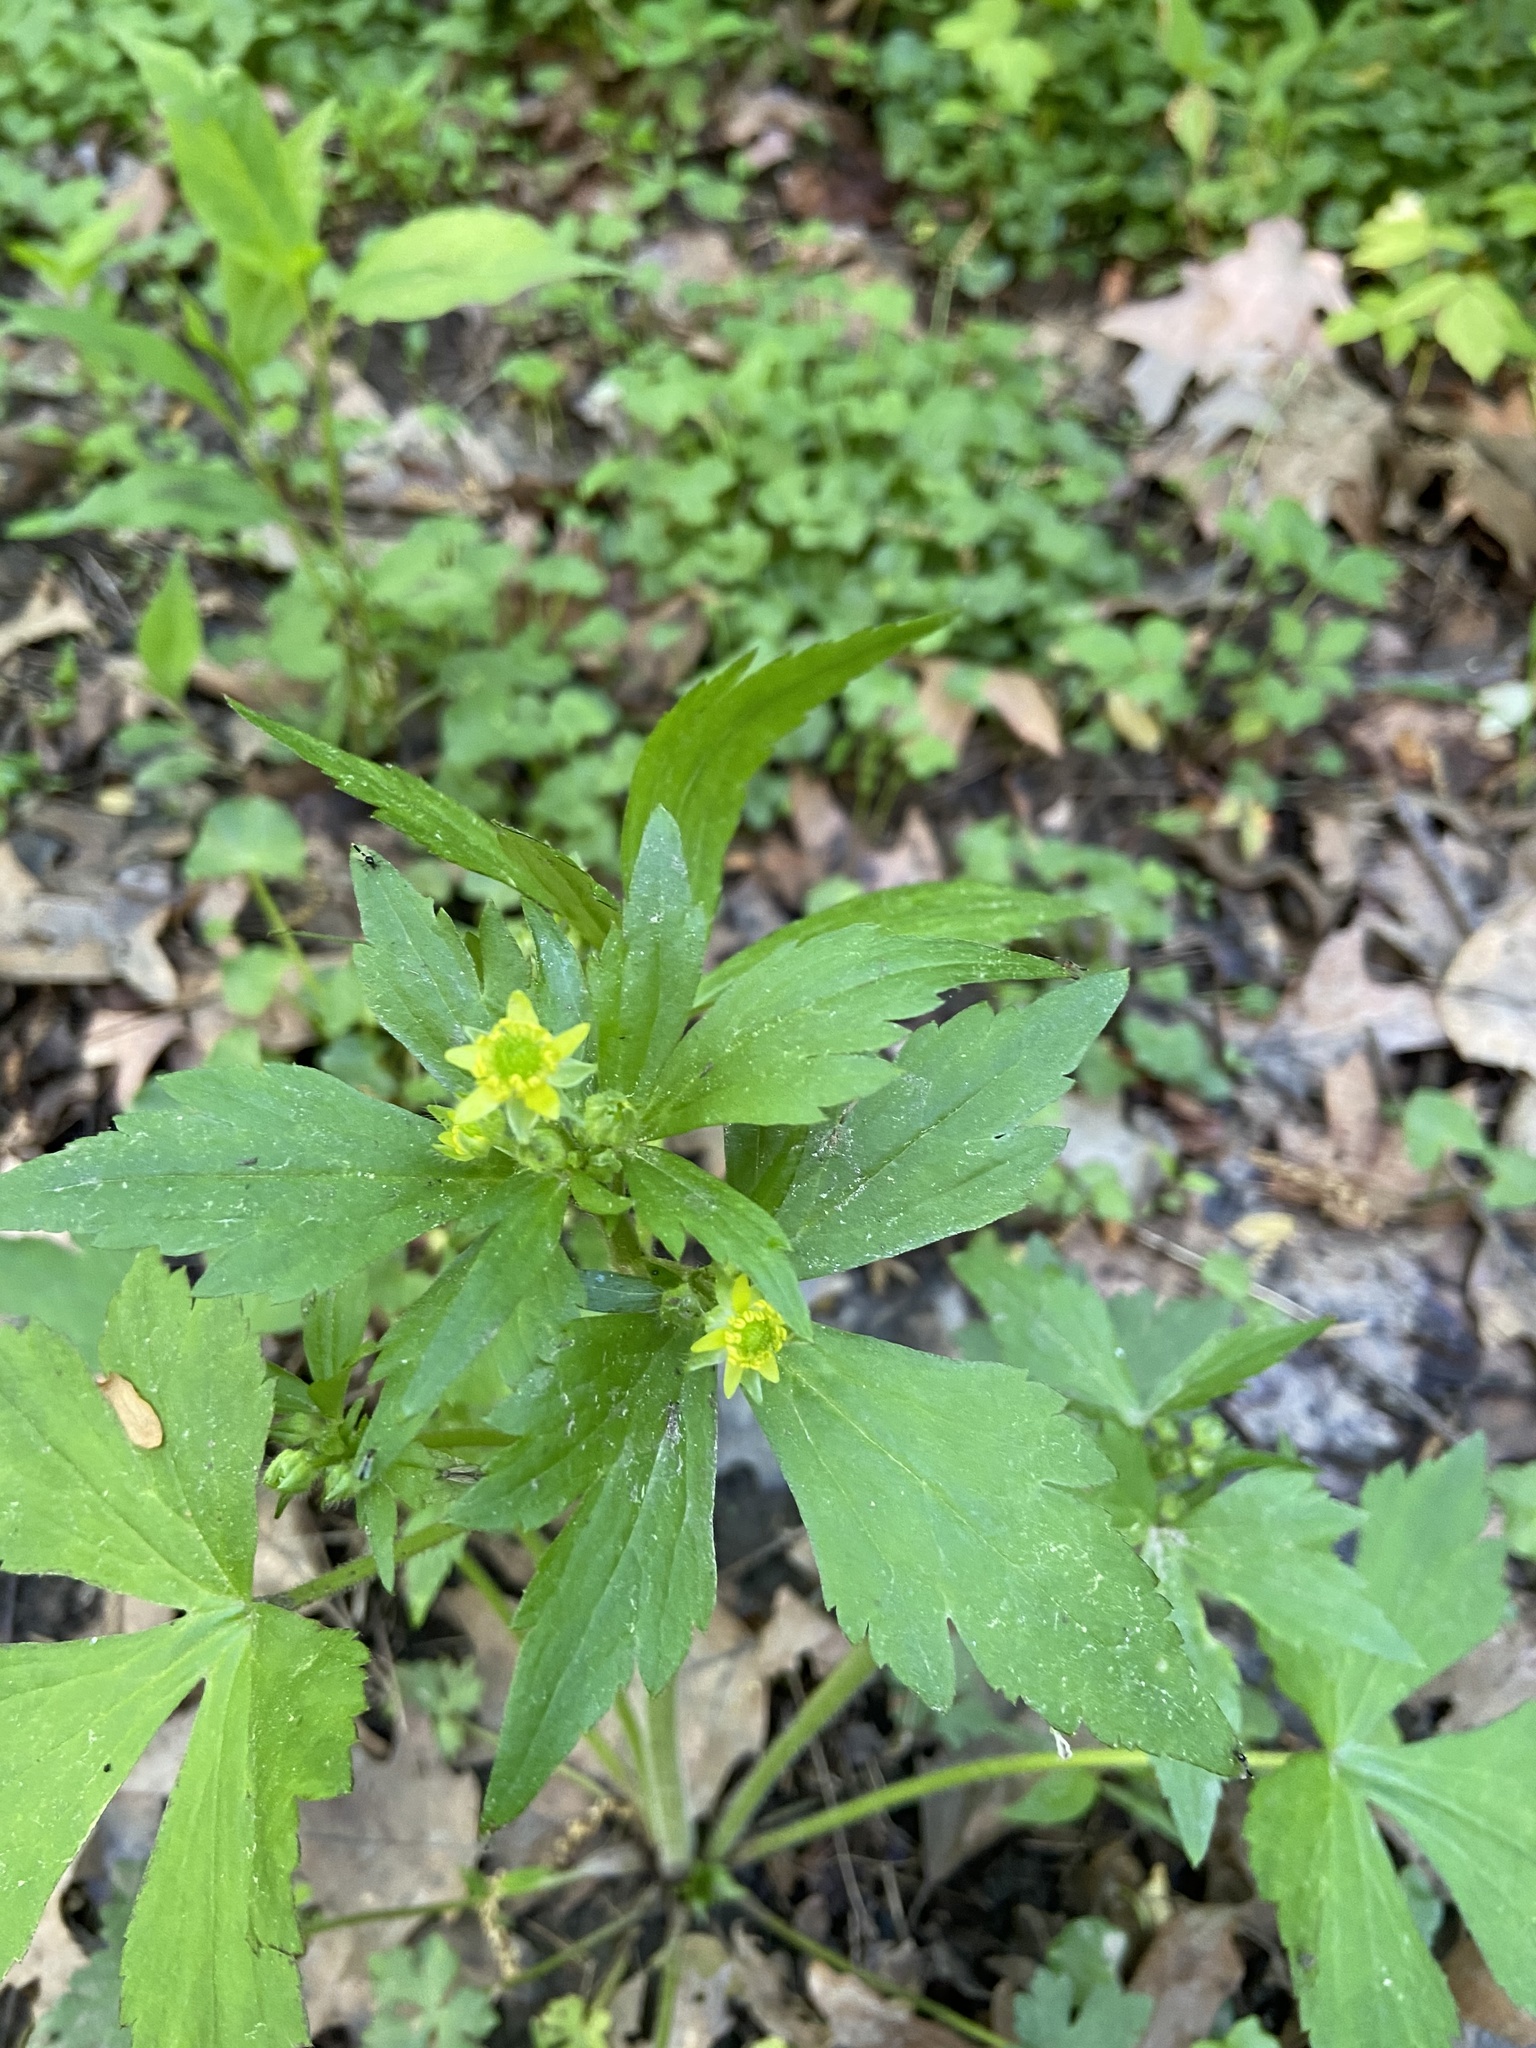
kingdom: Plantae
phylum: Tracheophyta
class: Magnoliopsida
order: Ranunculales
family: Ranunculaceae
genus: Ranunculus
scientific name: Ranunculus recurvatus
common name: Blisterwort
